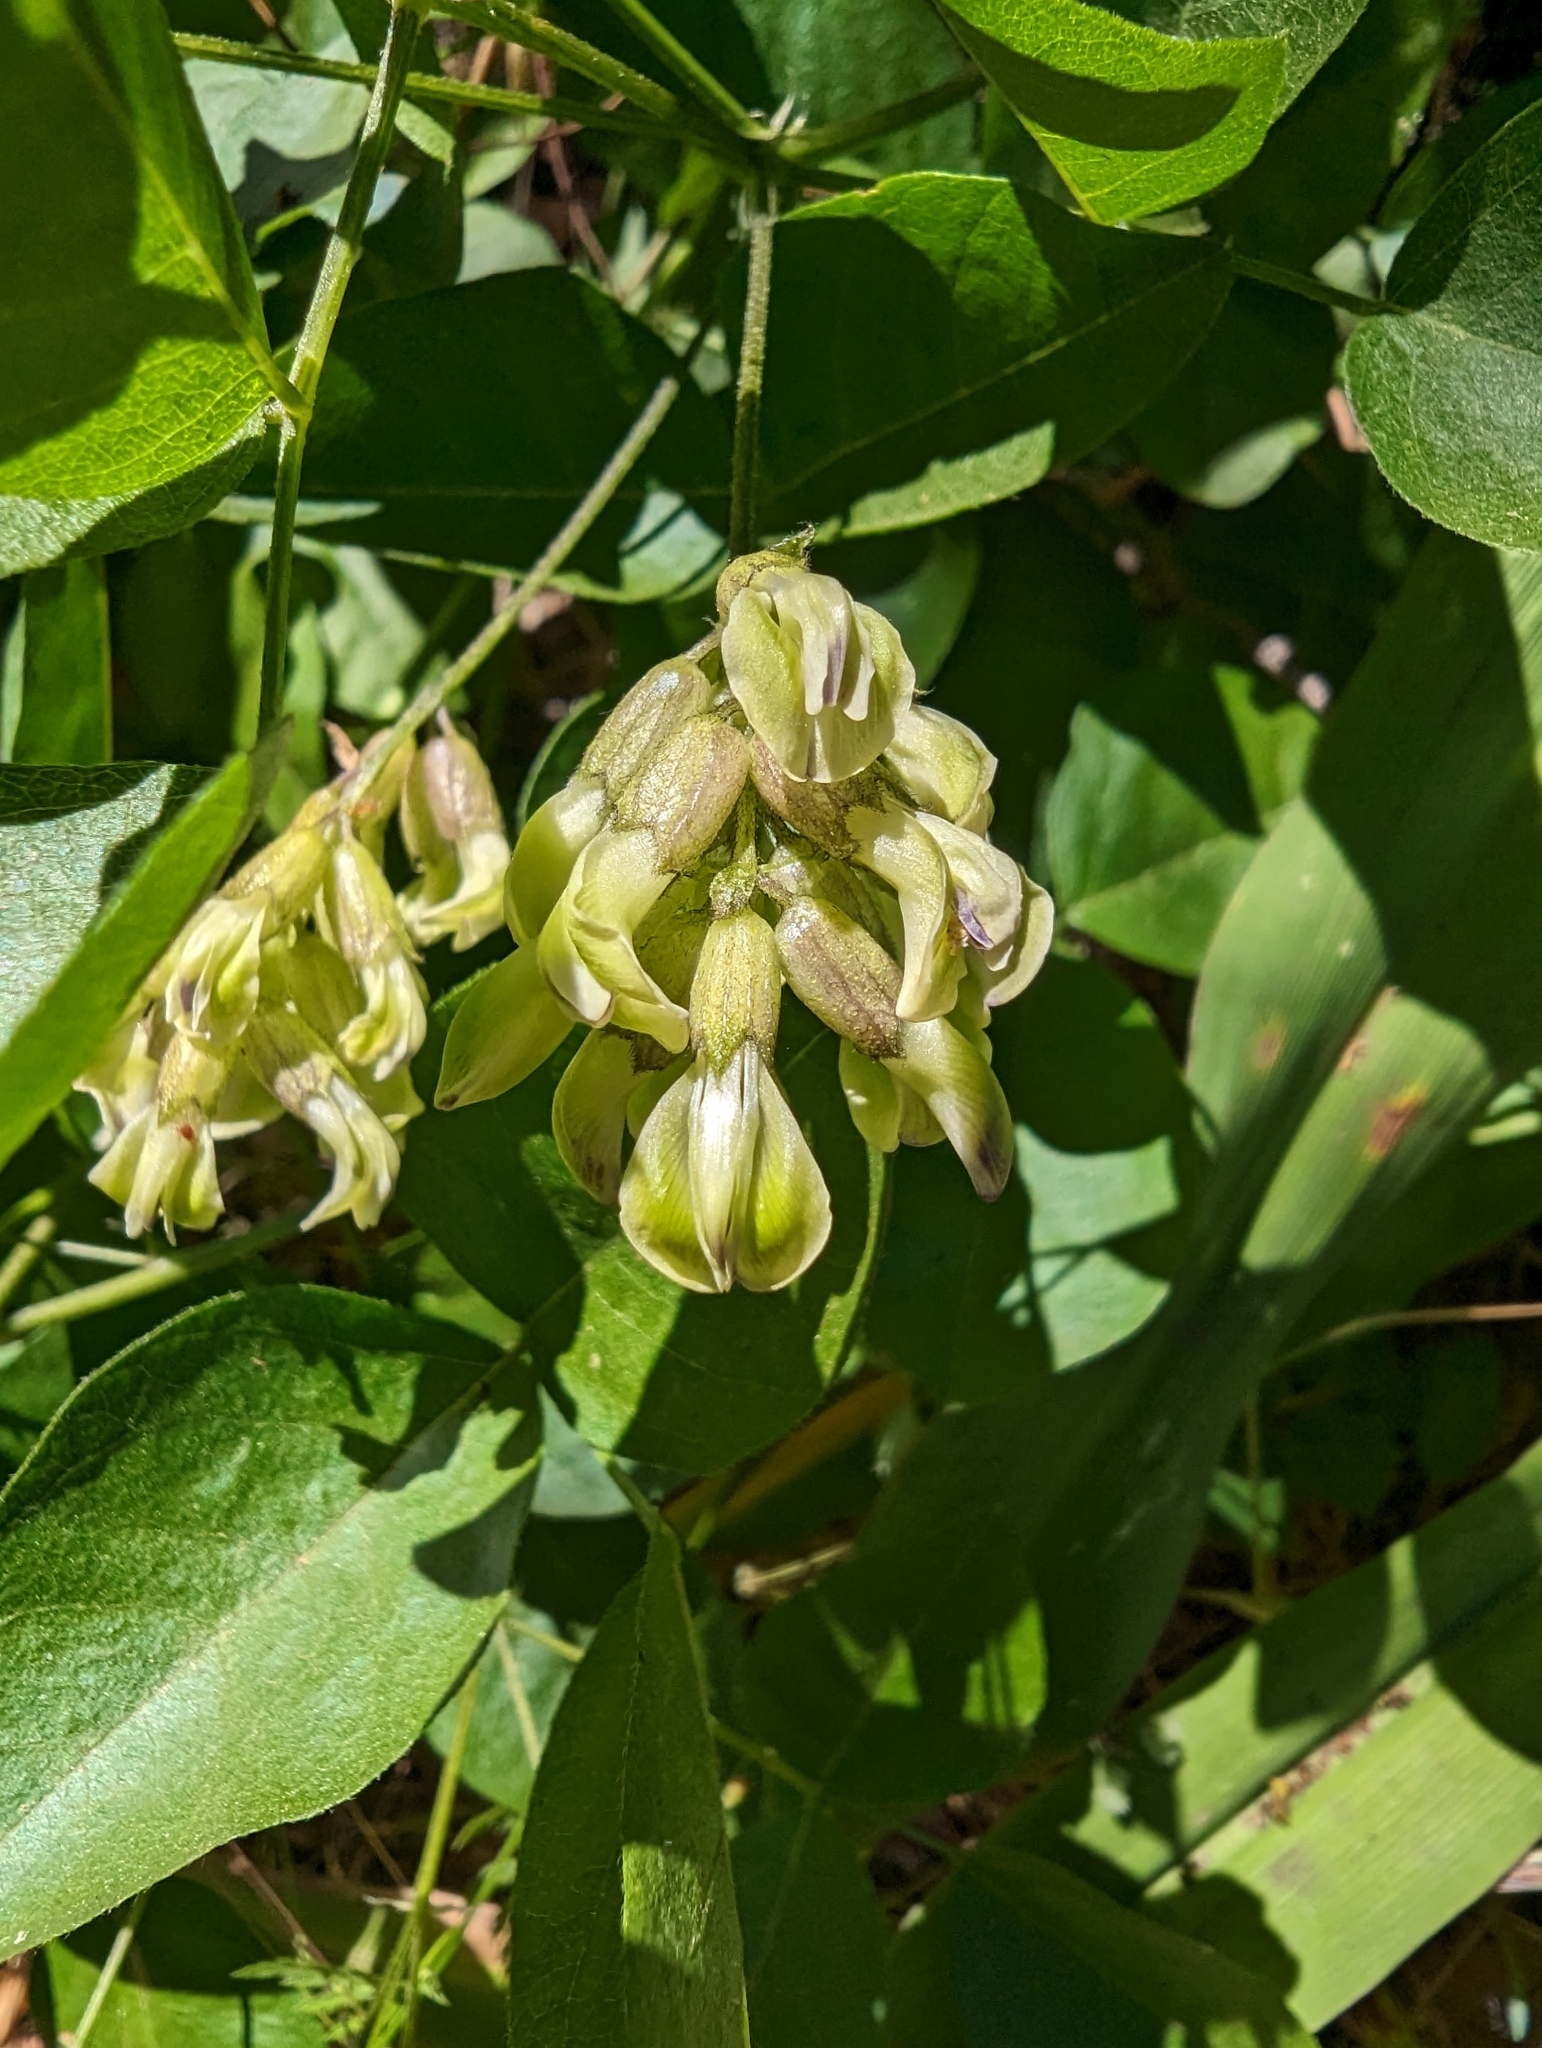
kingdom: Plantae
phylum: Tracheophyta
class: Magnoliopsida
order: Fabales
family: Fabaceae
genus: Rupertia
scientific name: Rupertia physodes
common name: California-tea
